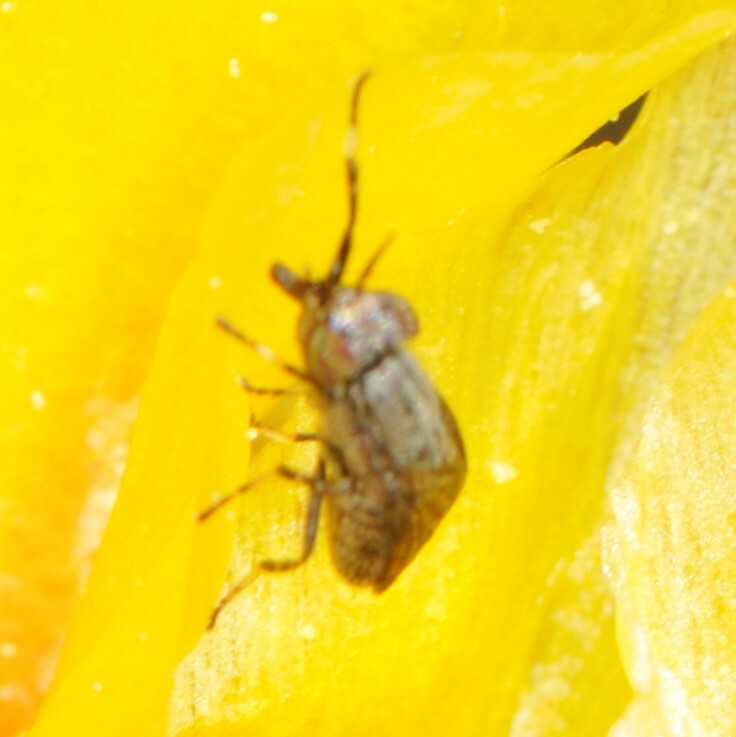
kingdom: Animalia
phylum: Arthropoda
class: Insecta
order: Diptera
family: Ulidiidae
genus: Stictomyia
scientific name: Stictomyia longicornis
